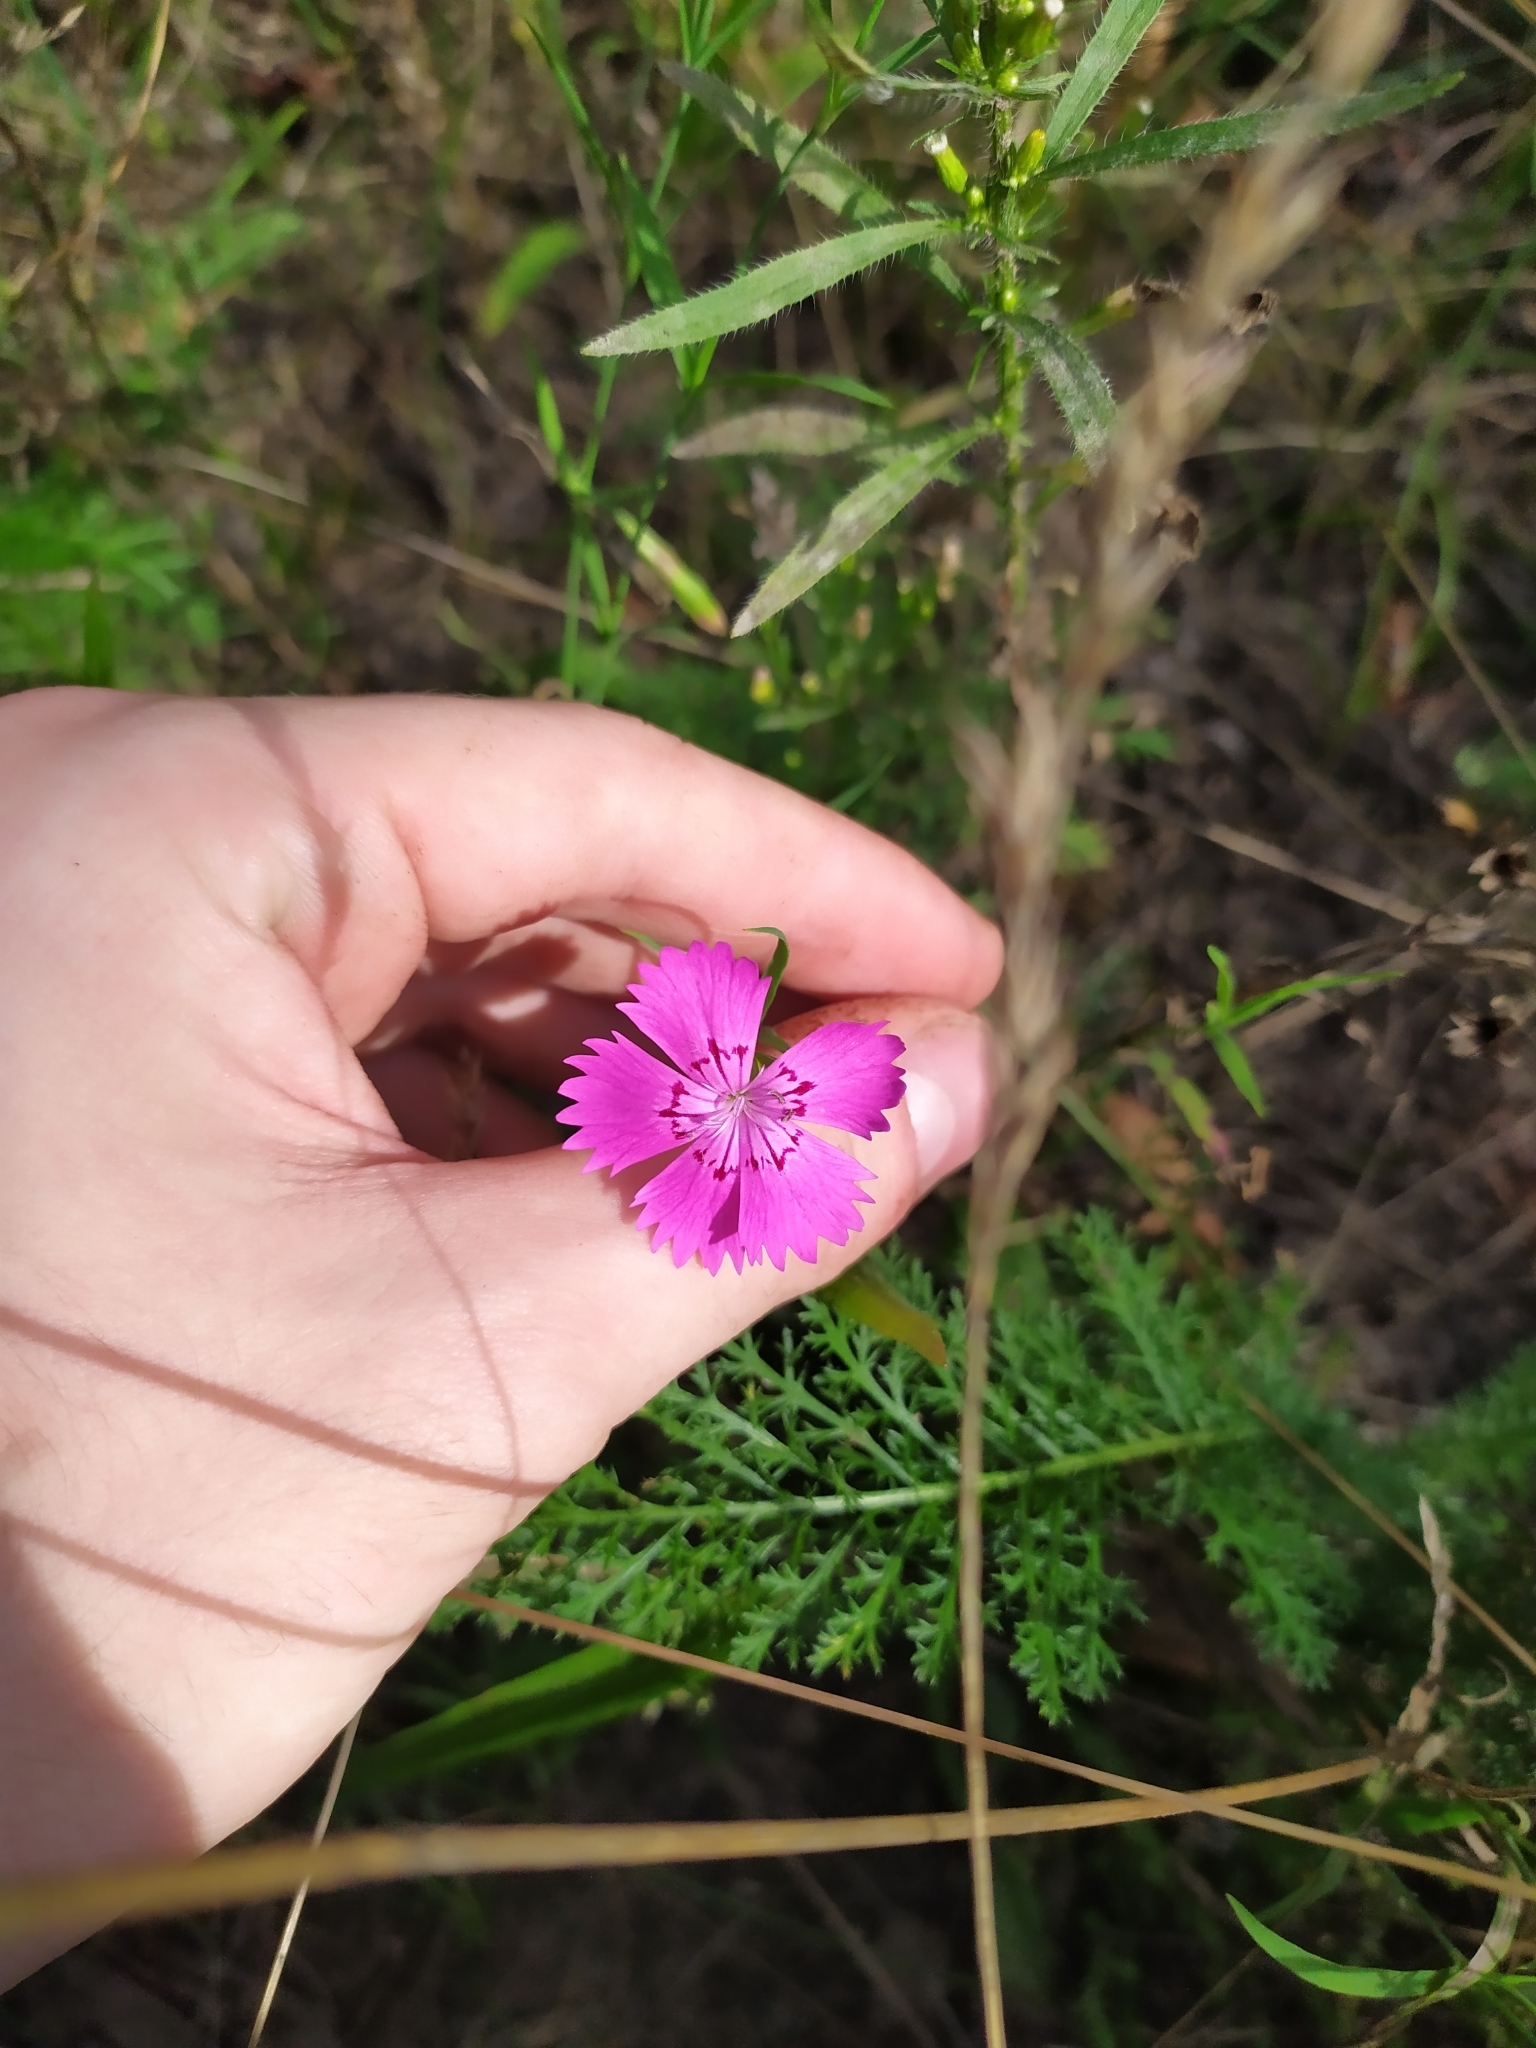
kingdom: Plantae
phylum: Tracheophyta
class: Magnoliopsida
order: Caryophyllales
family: Caryophyllaceae
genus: Dianthus
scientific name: Dianthus chinensis
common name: Rainbow pink
